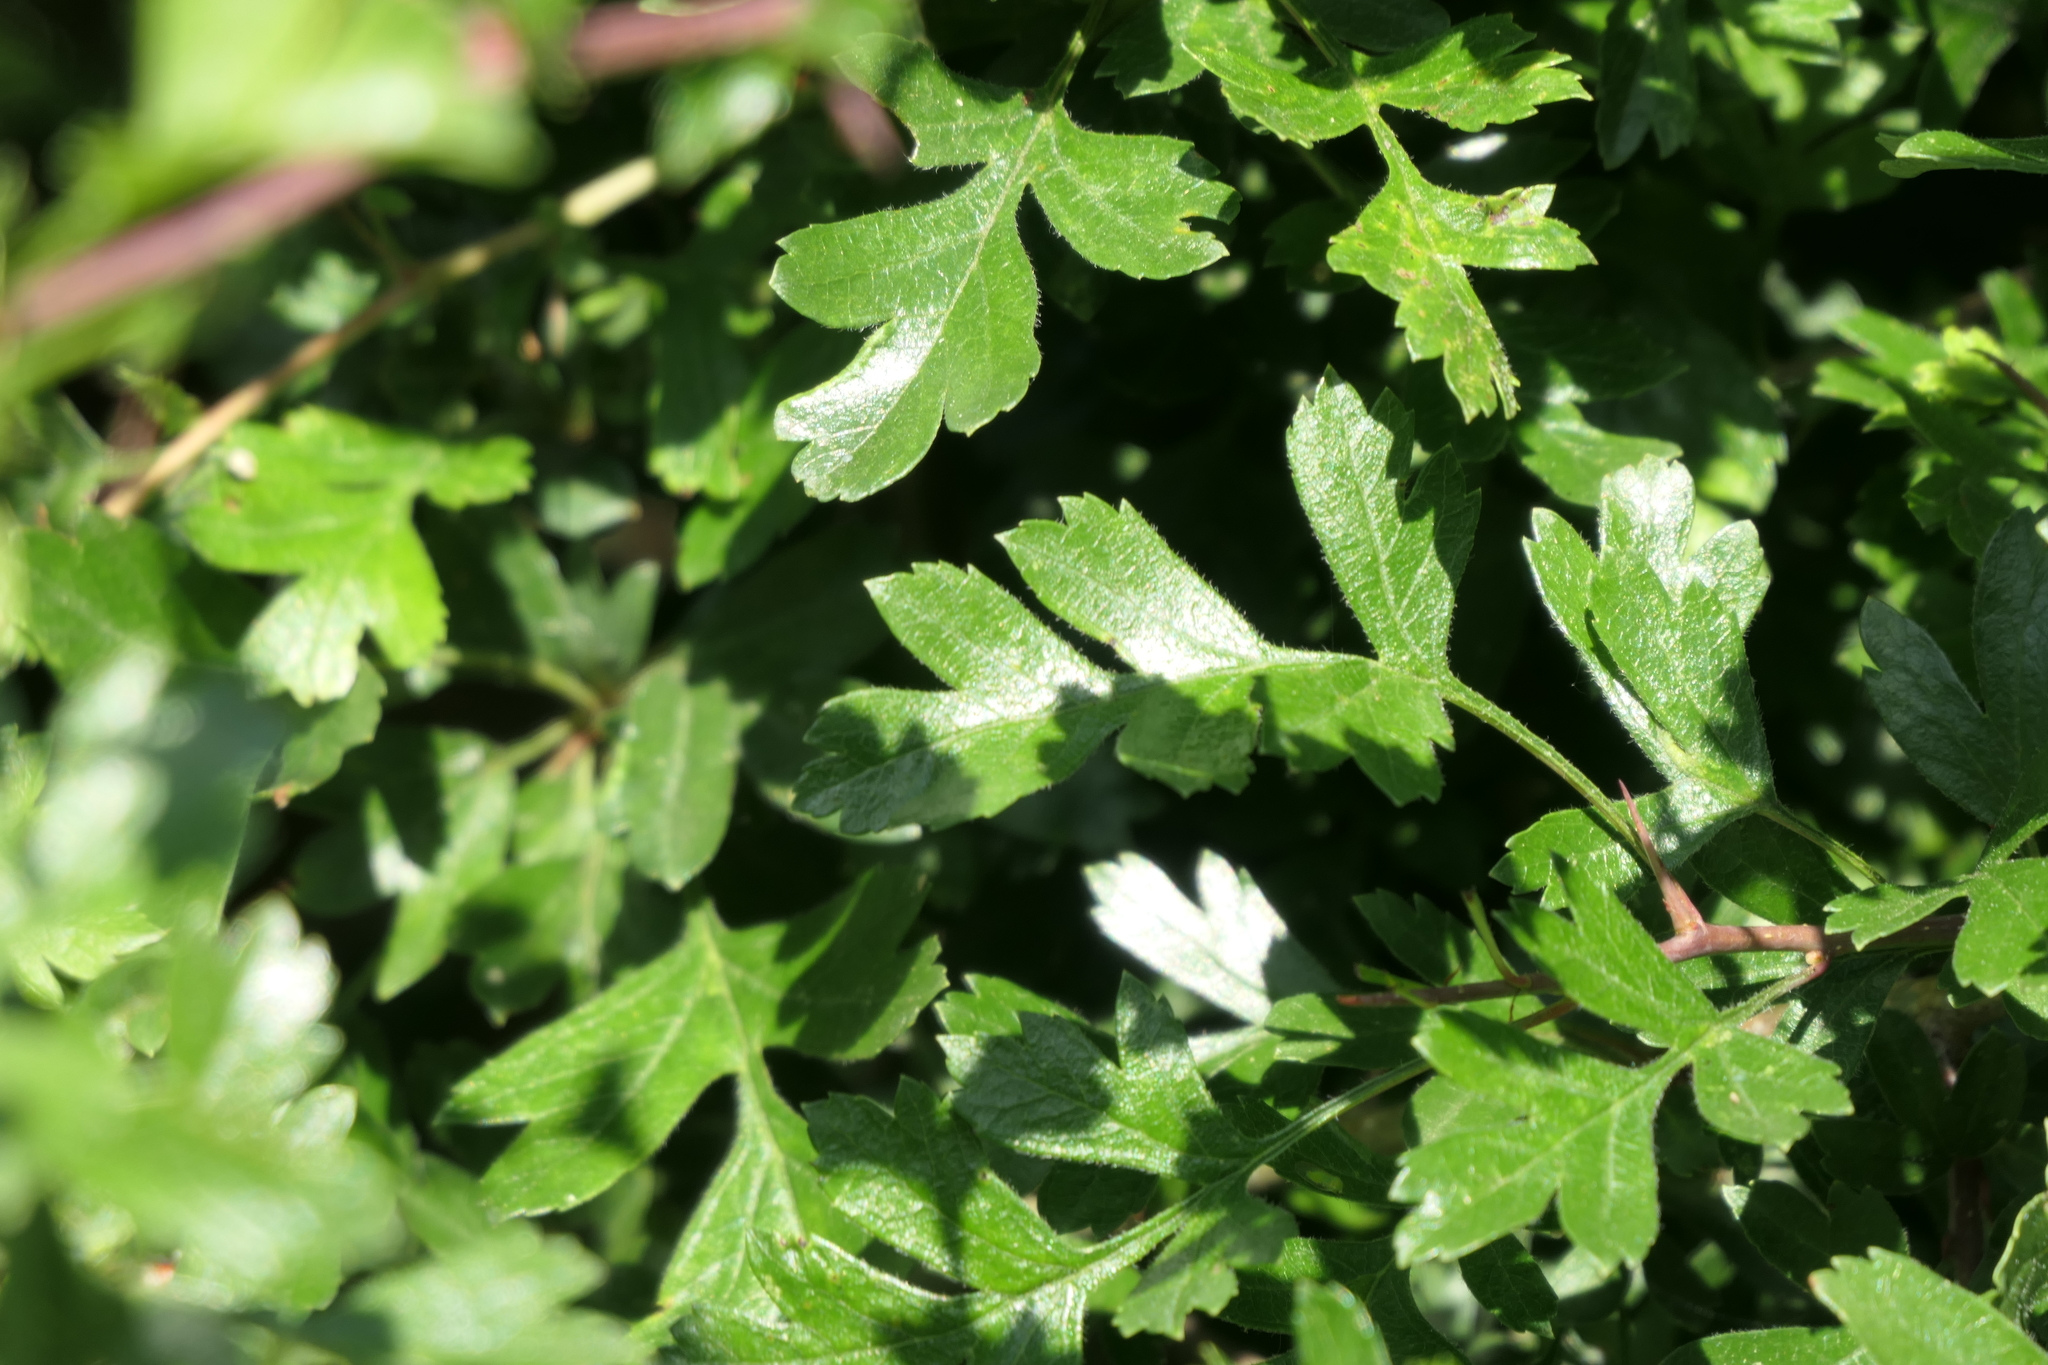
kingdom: Plantae
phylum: Tracheophyta
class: Magnoliopsida
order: Rosales
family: Rosaceae
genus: Crataegus
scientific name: Crataegus monogyna
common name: Hawthorn
